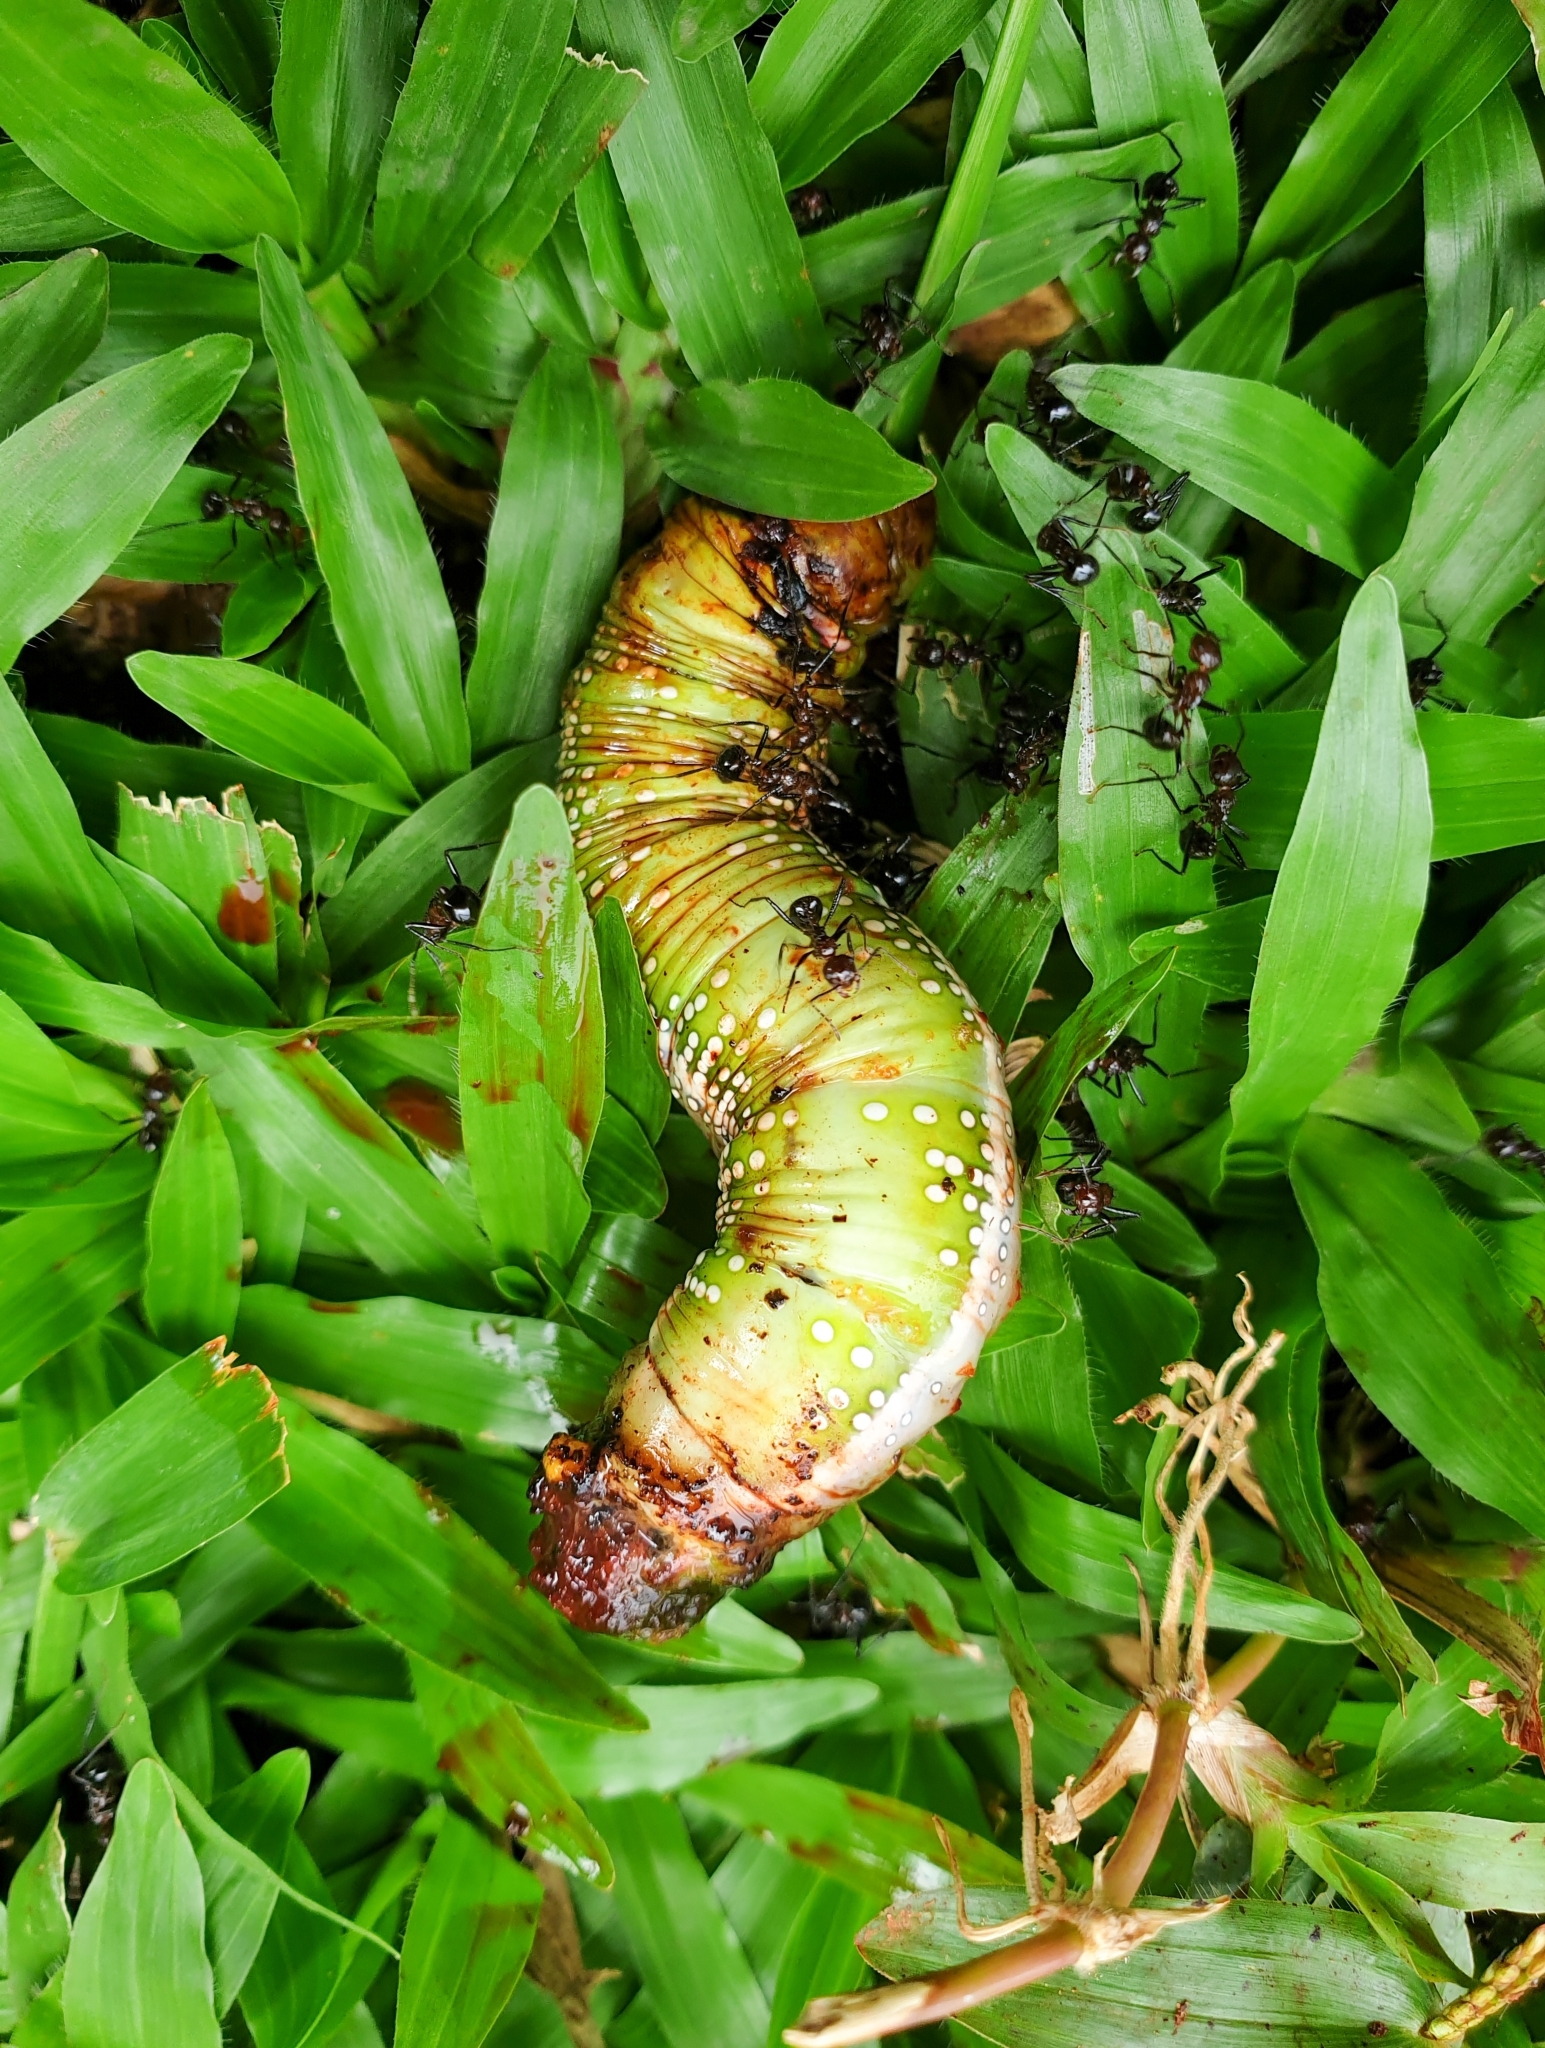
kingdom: Animalia
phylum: Arthropoda
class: Insecta
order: Lepidoptera
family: Sphingidae
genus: Daphnis
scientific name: Daphnis nerii
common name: Oleander hawk-moth
